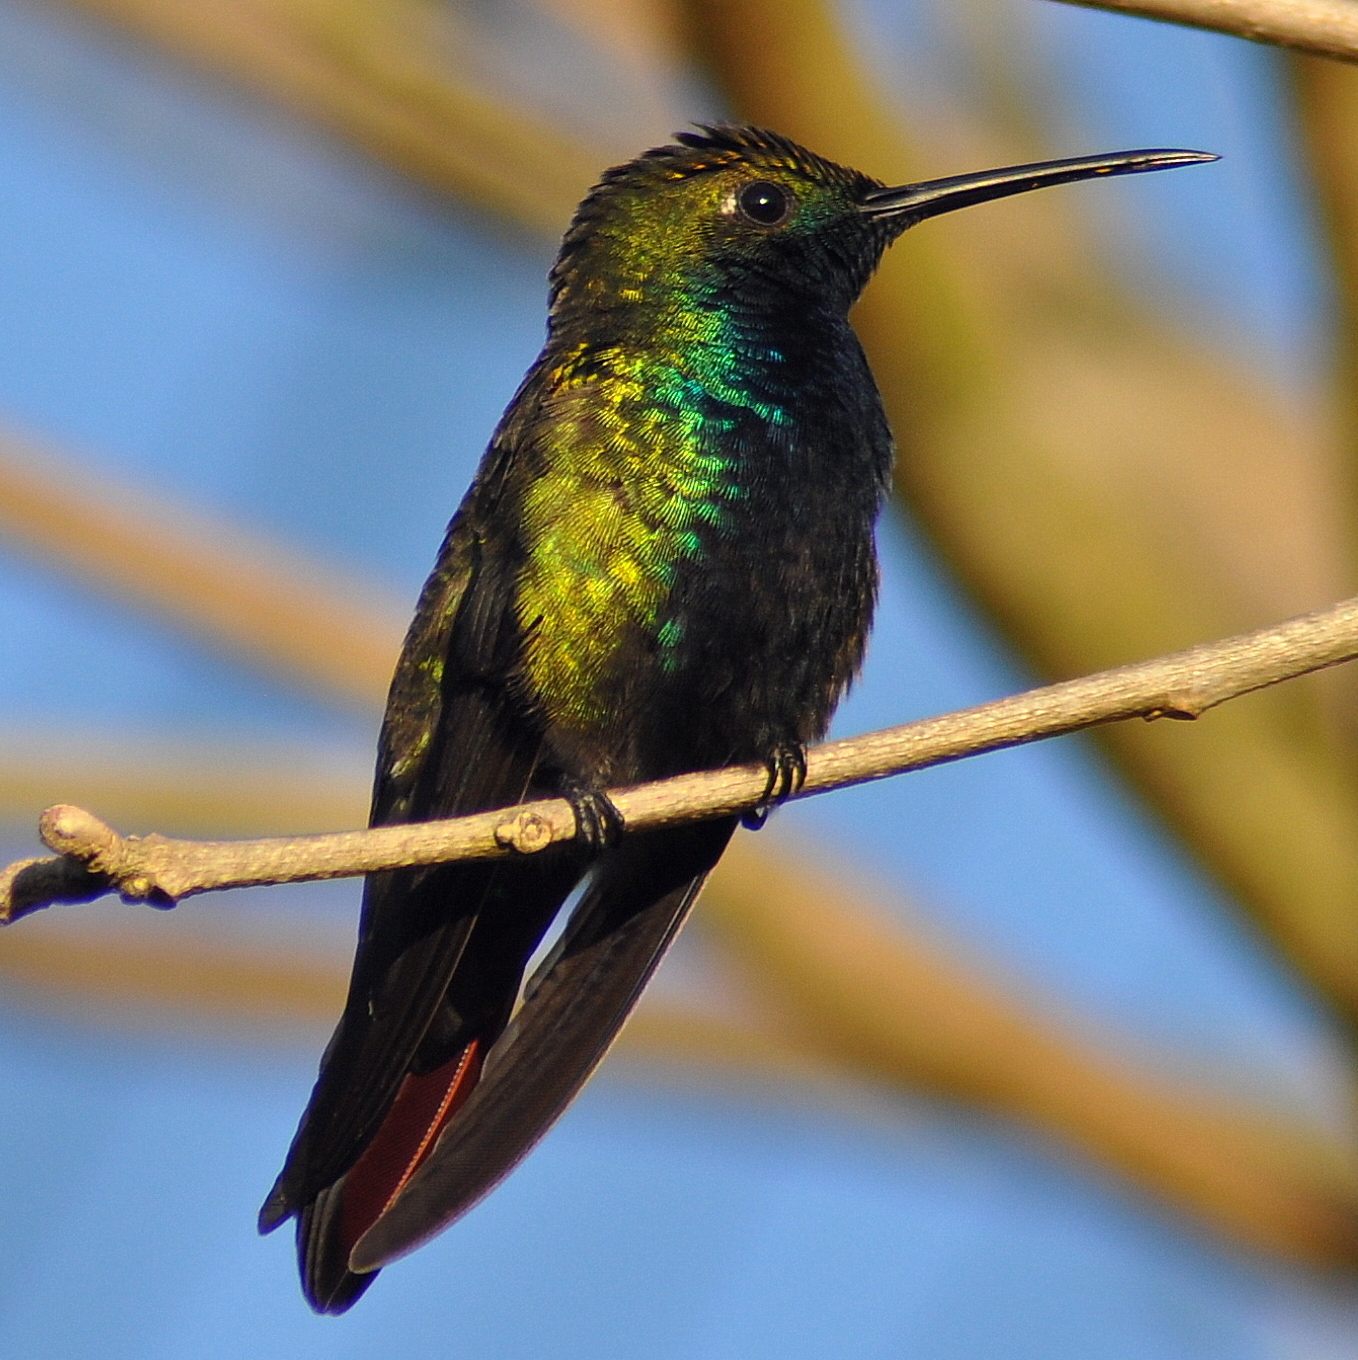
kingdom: Animalia
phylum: Chordata
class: Aves
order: Apodiformes
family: Trochilidae
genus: Anthracothorax
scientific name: Anthracothorax nigricollis
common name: Black-throated mango
